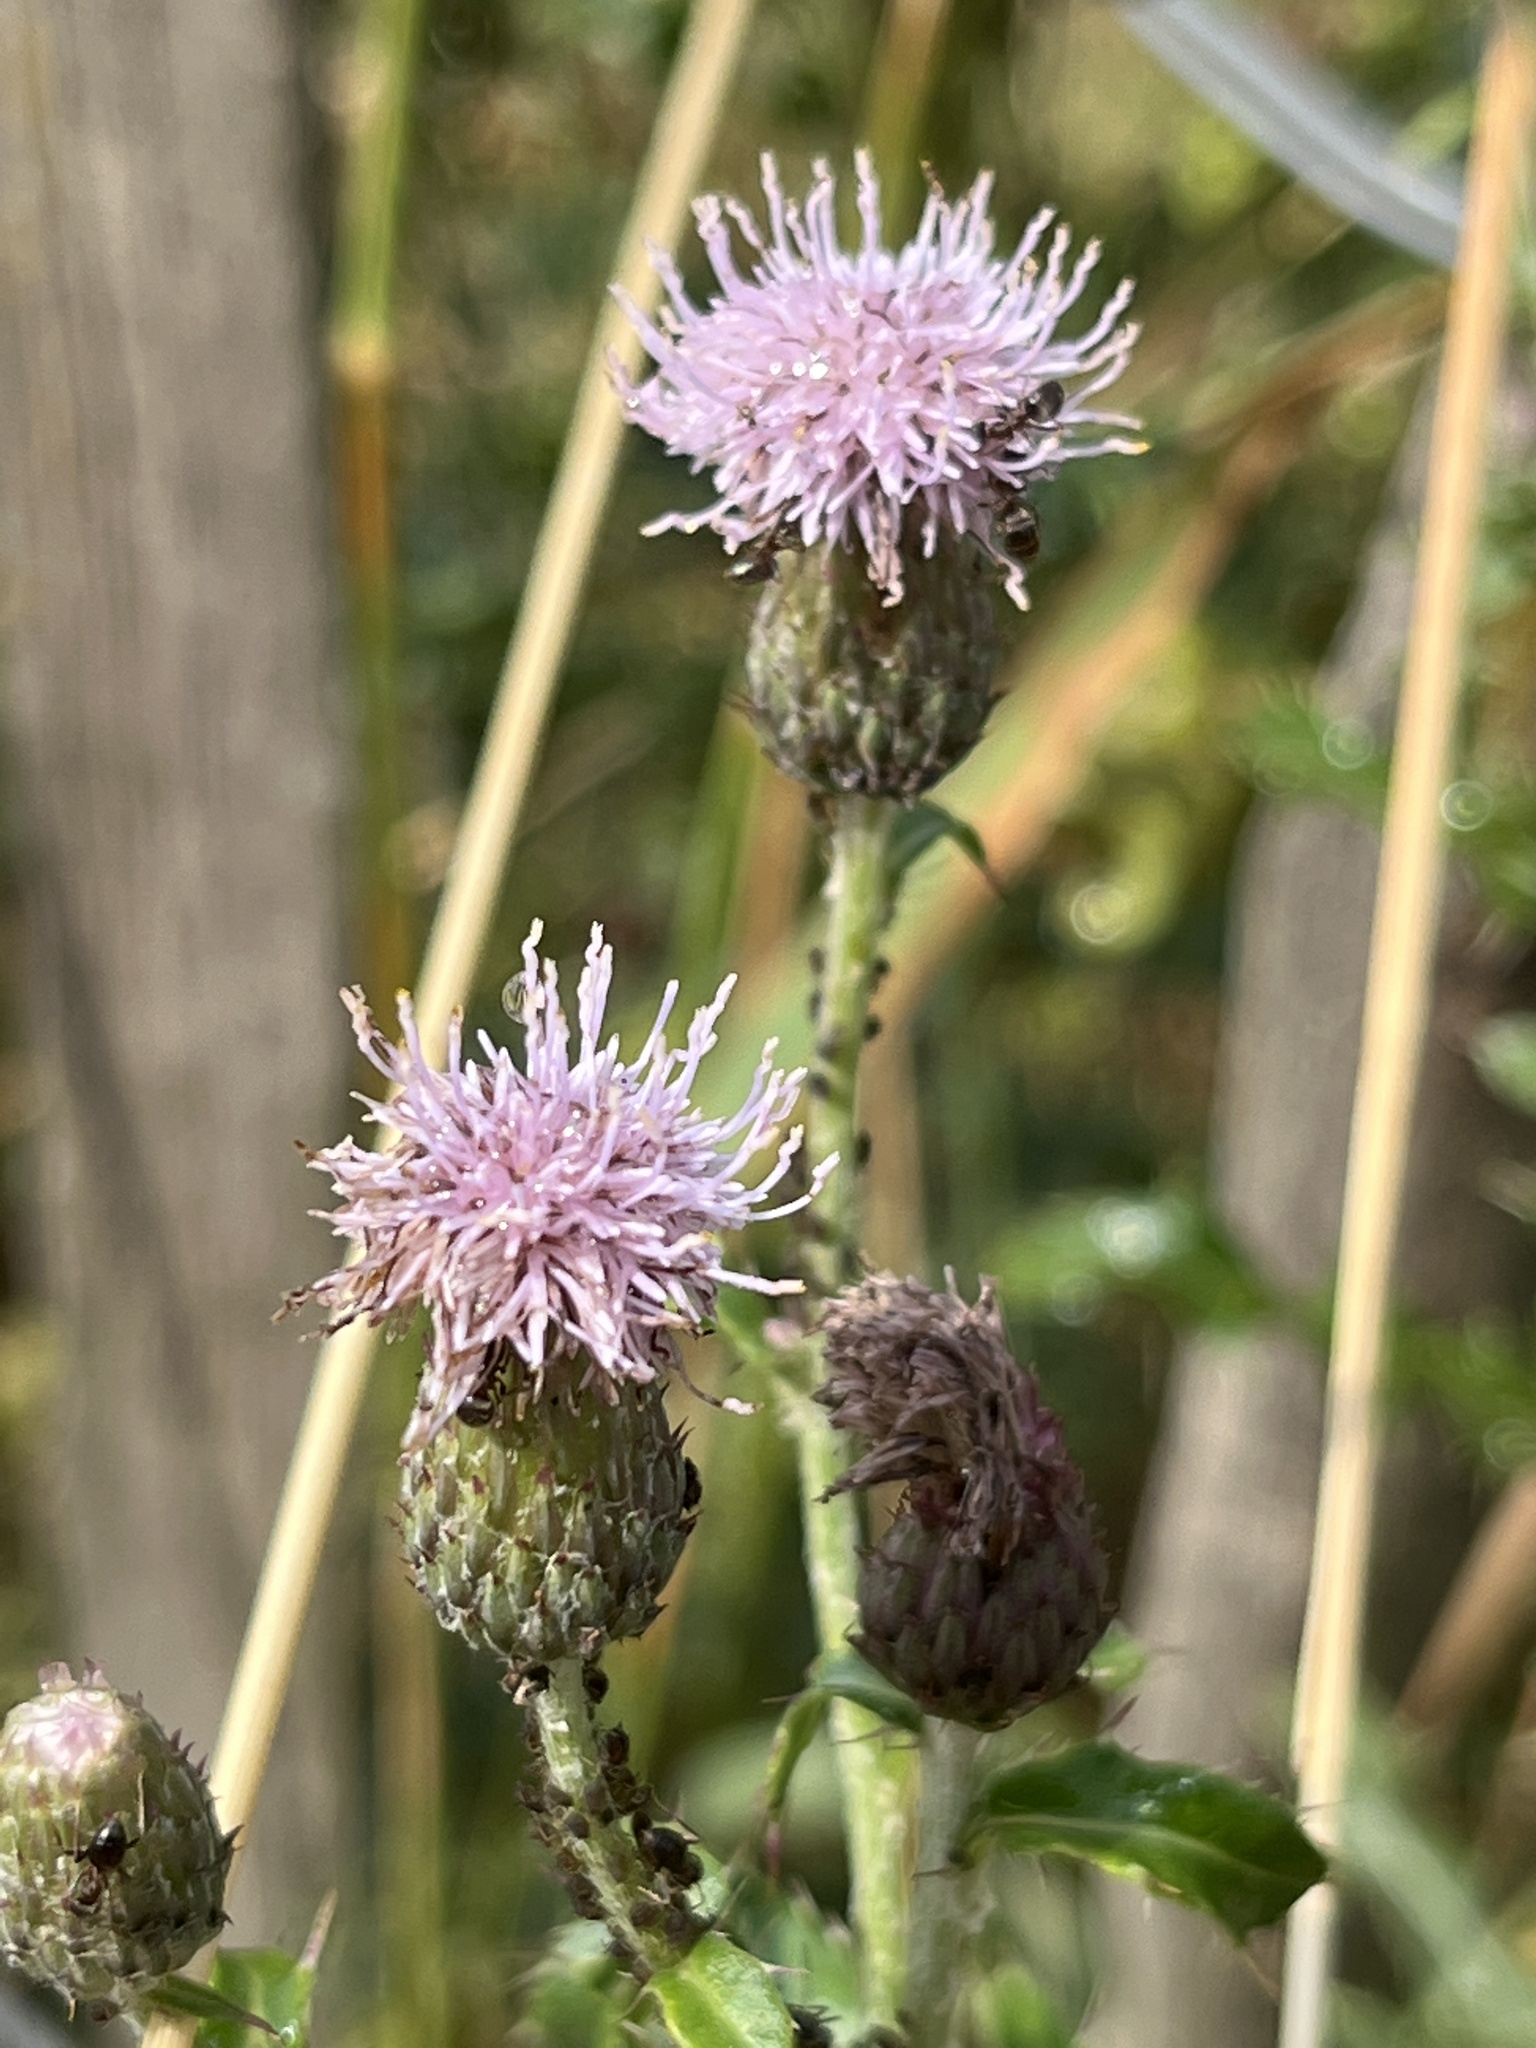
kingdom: Plantae
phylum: Tracheophyta
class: Magnoliopsida
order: Asterales
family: Asteraceae
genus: Cirsium
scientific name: Cirsium arvense
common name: Creeping thistle
